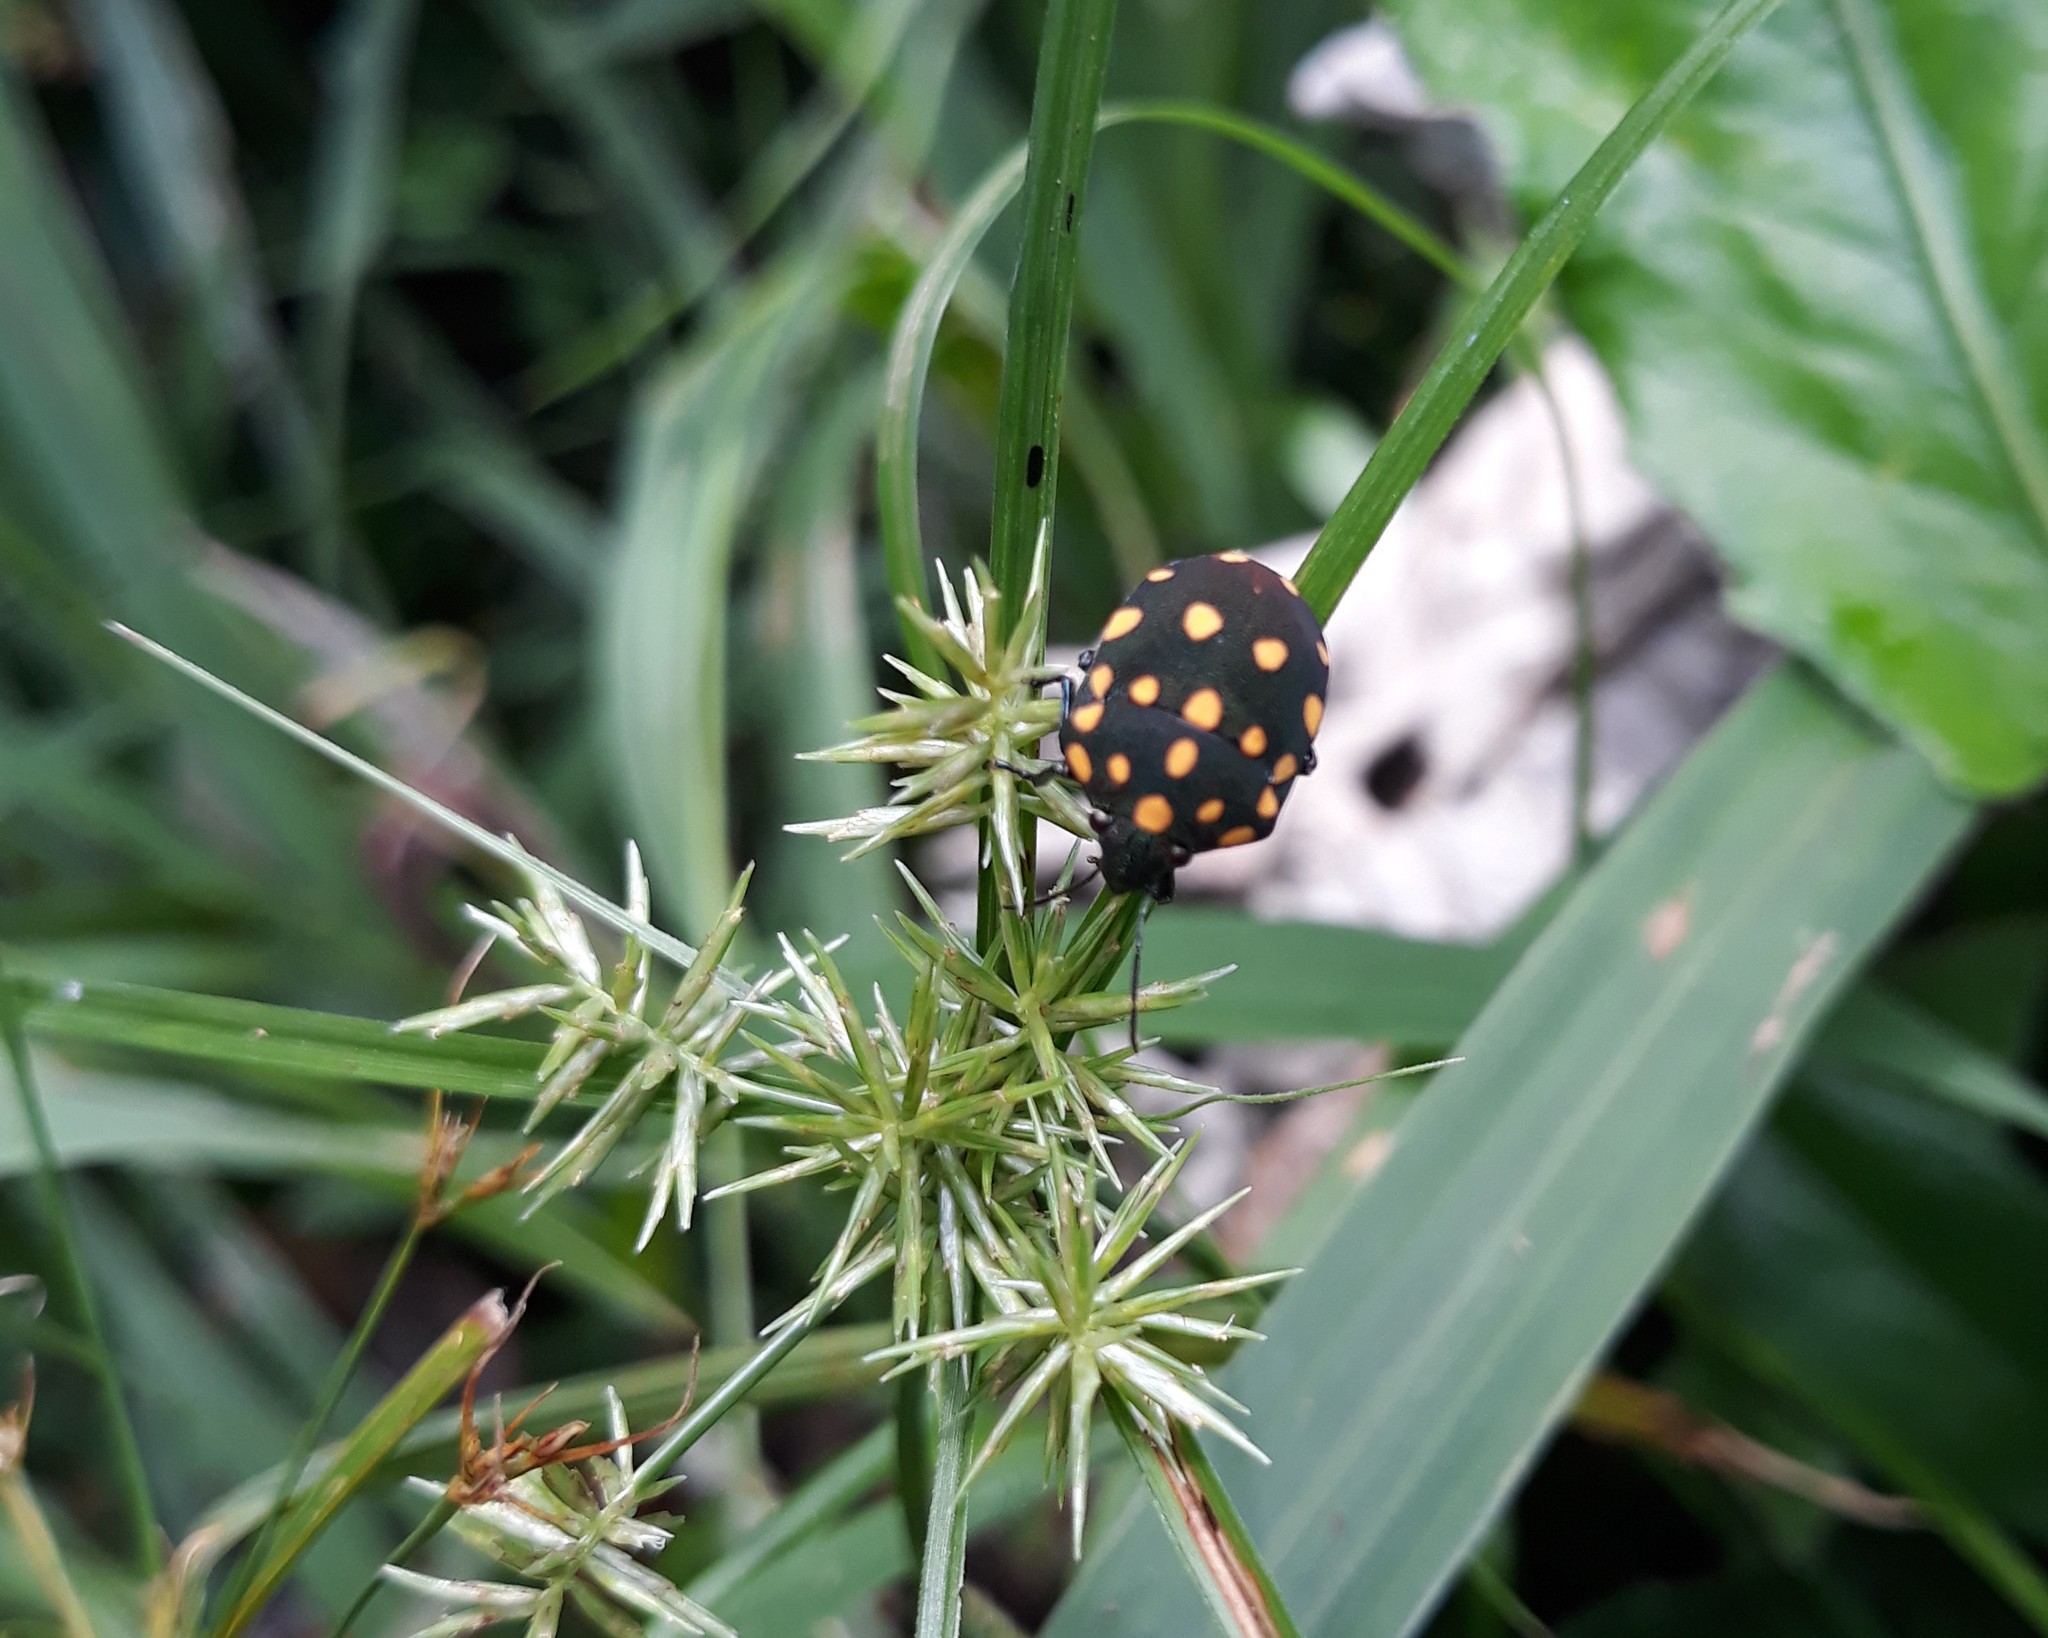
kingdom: Animalia
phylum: Arthropoda
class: Insecta
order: Hemiptera
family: Scutelleridae
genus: Pachycoris
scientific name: Pachycoris torridus
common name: Torrid jewel bug
